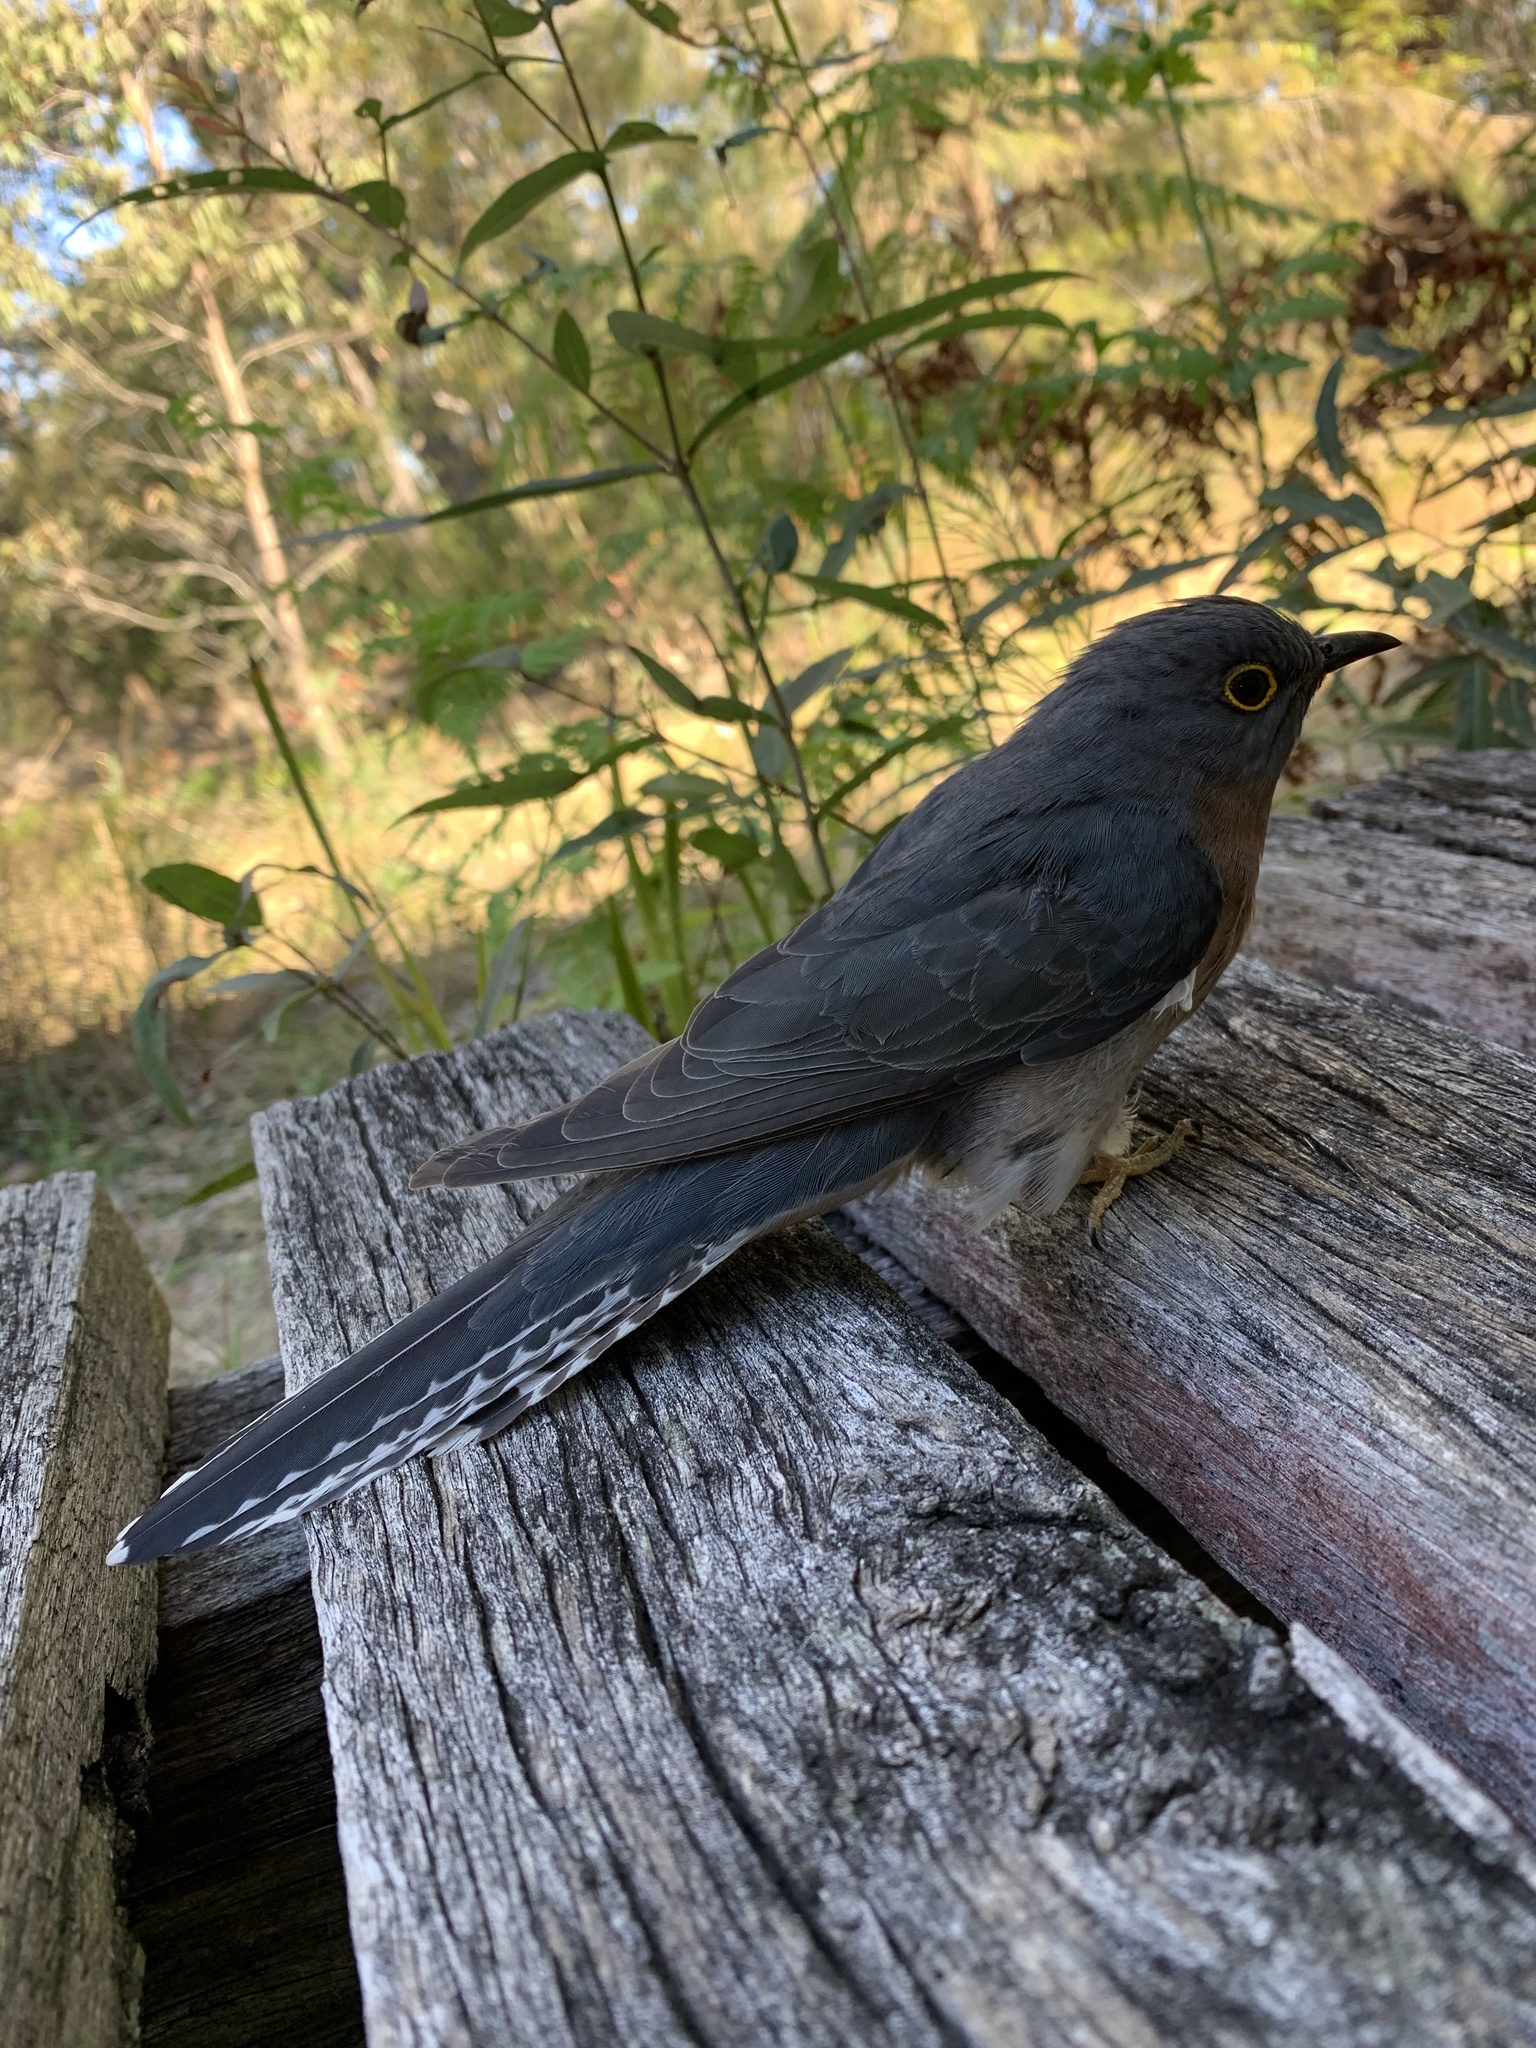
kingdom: Animalia
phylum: Chordata
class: Aves
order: Cuculiformes
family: Cuculidae
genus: Cacomantis
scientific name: Cacomantis flabelliformis
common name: Fan-tailed cuckoo
